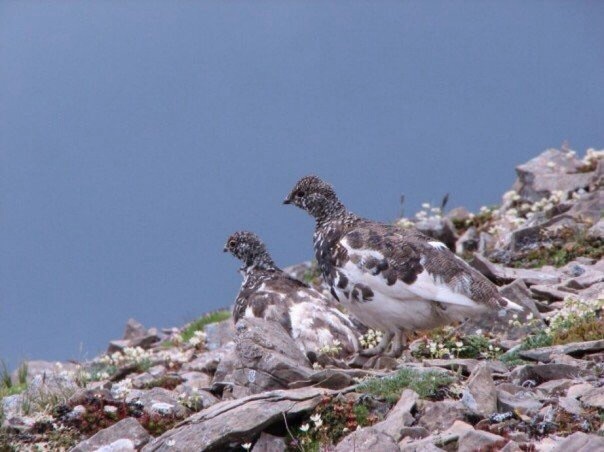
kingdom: Animalia
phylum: Chordata
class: Aves
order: Galliformes
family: Phasianidae
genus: Lagopus
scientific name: Lagopus leucura
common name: White-tailed ptarmigan
